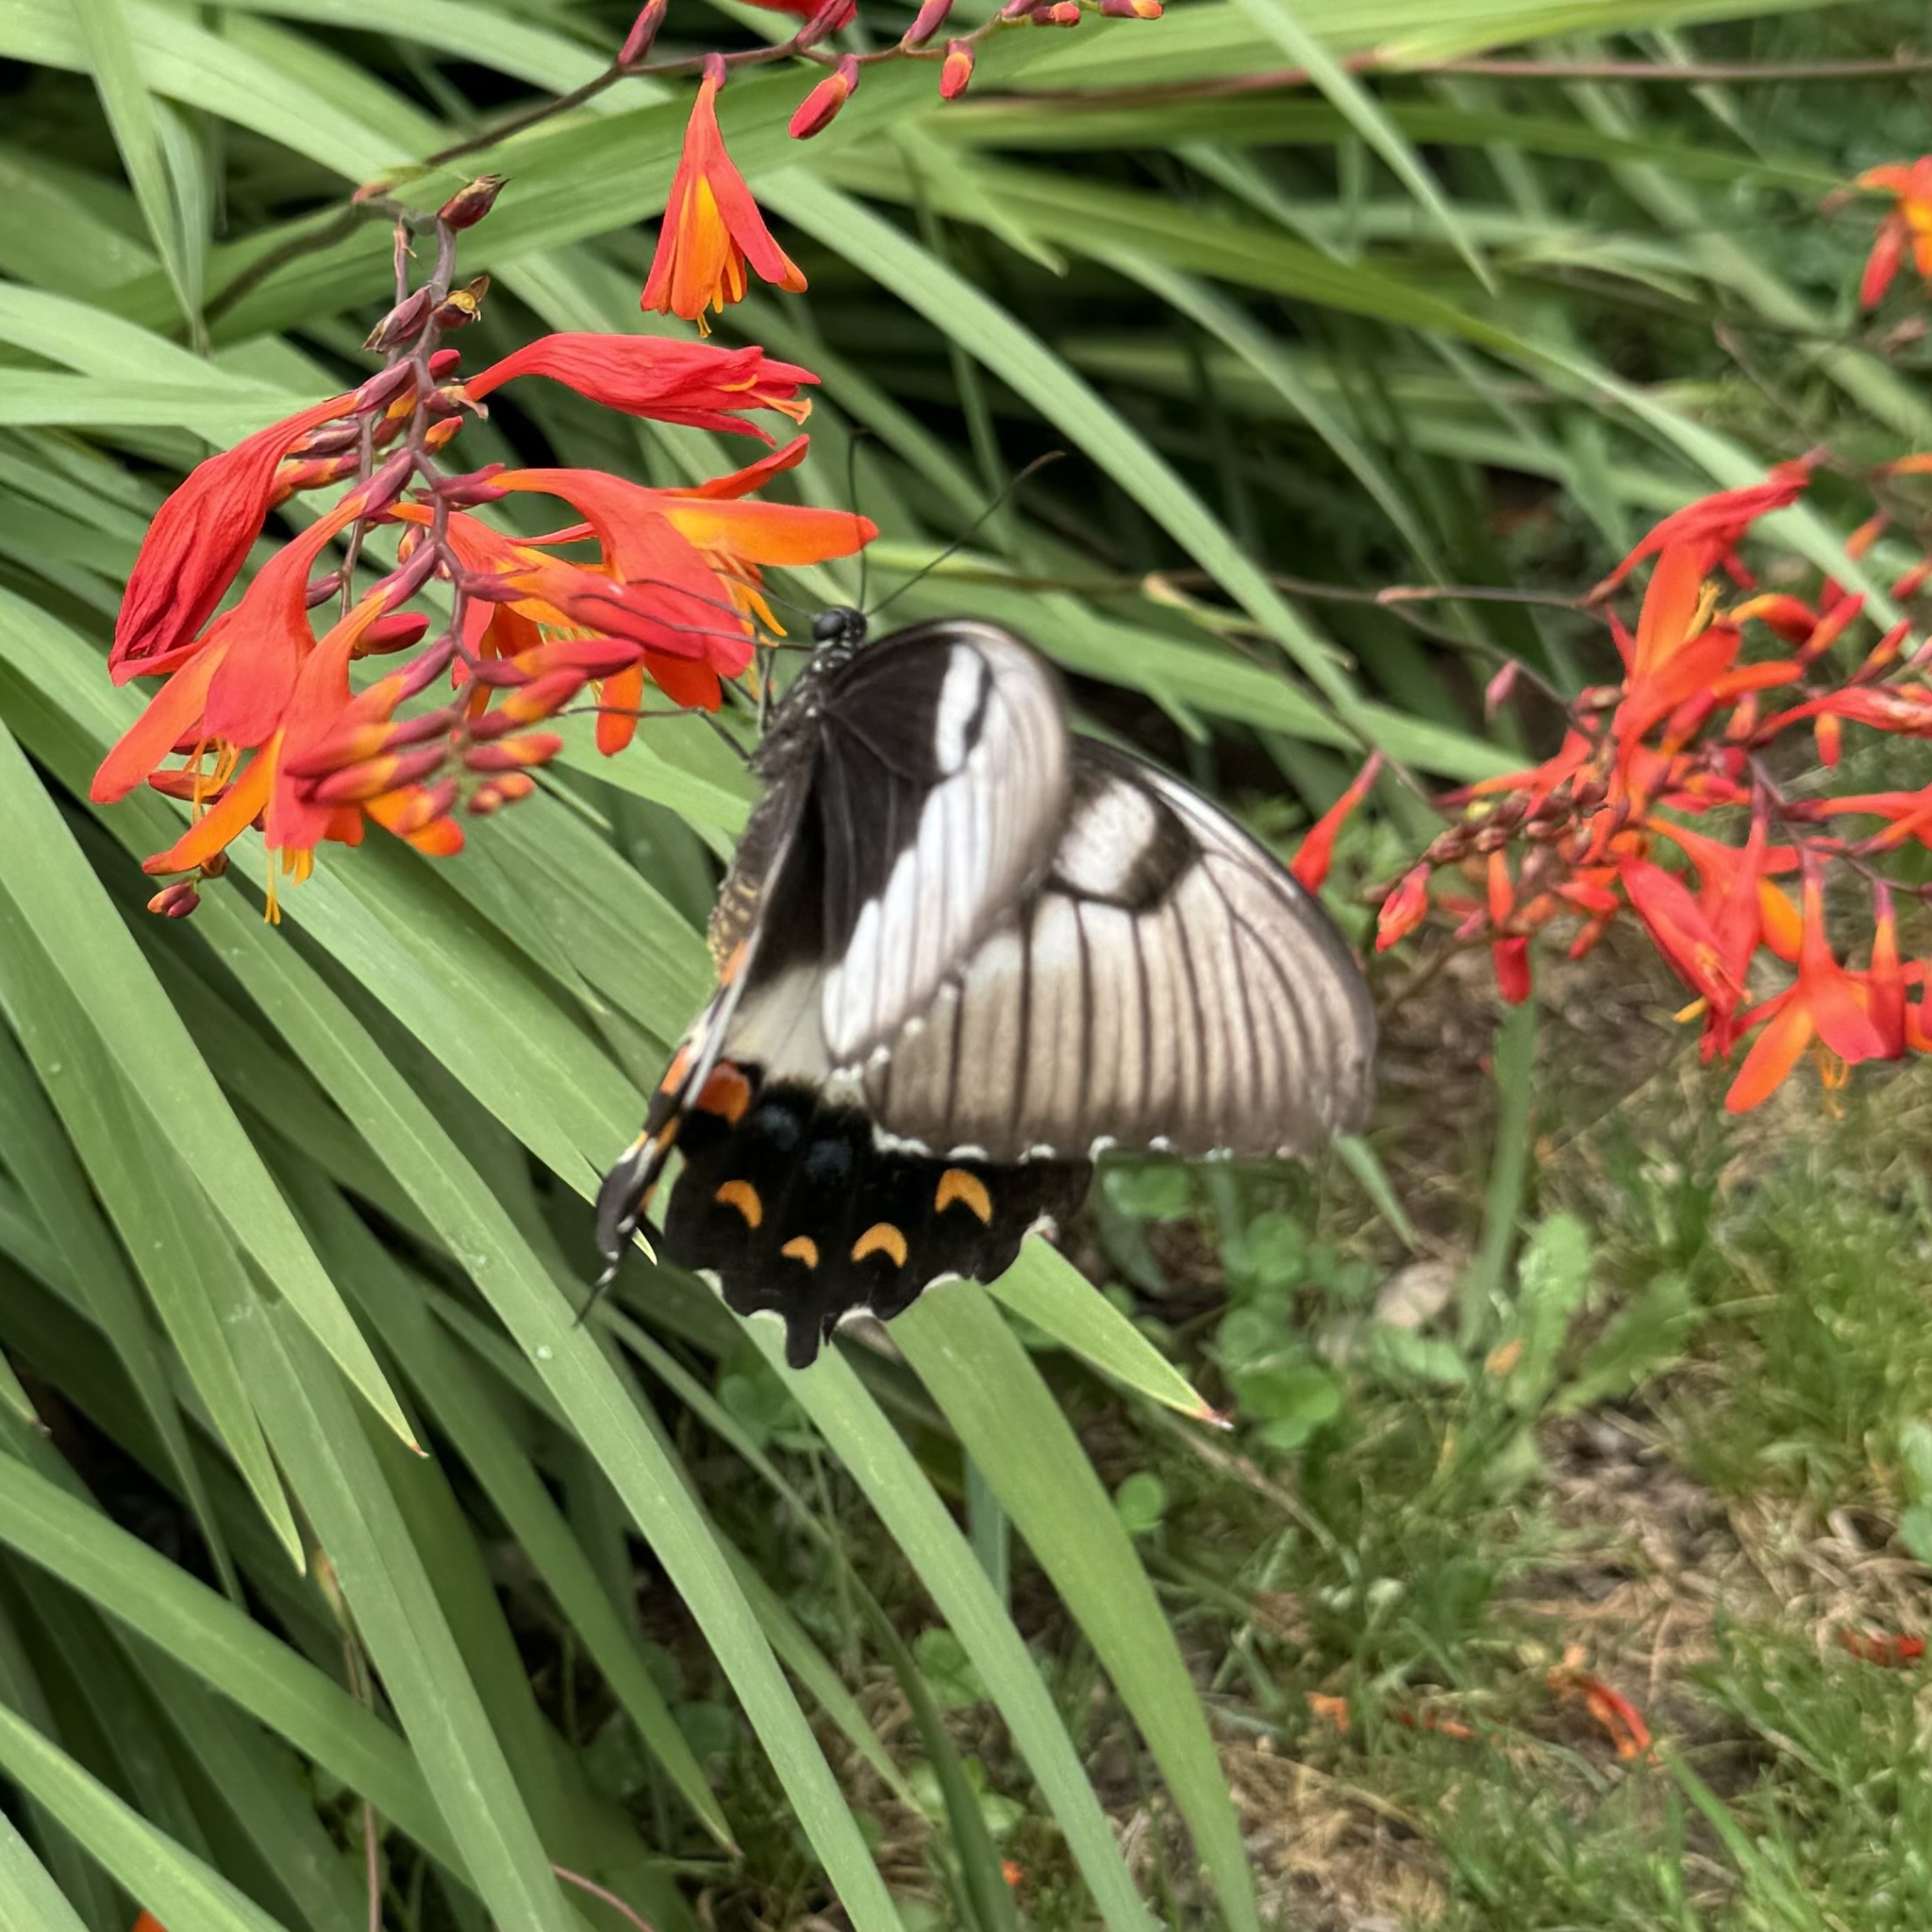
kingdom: Animalia
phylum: Arthropoda
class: Insecta
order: Lepidoptera
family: Papilionidae
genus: Papilio
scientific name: Papilio aegeus
